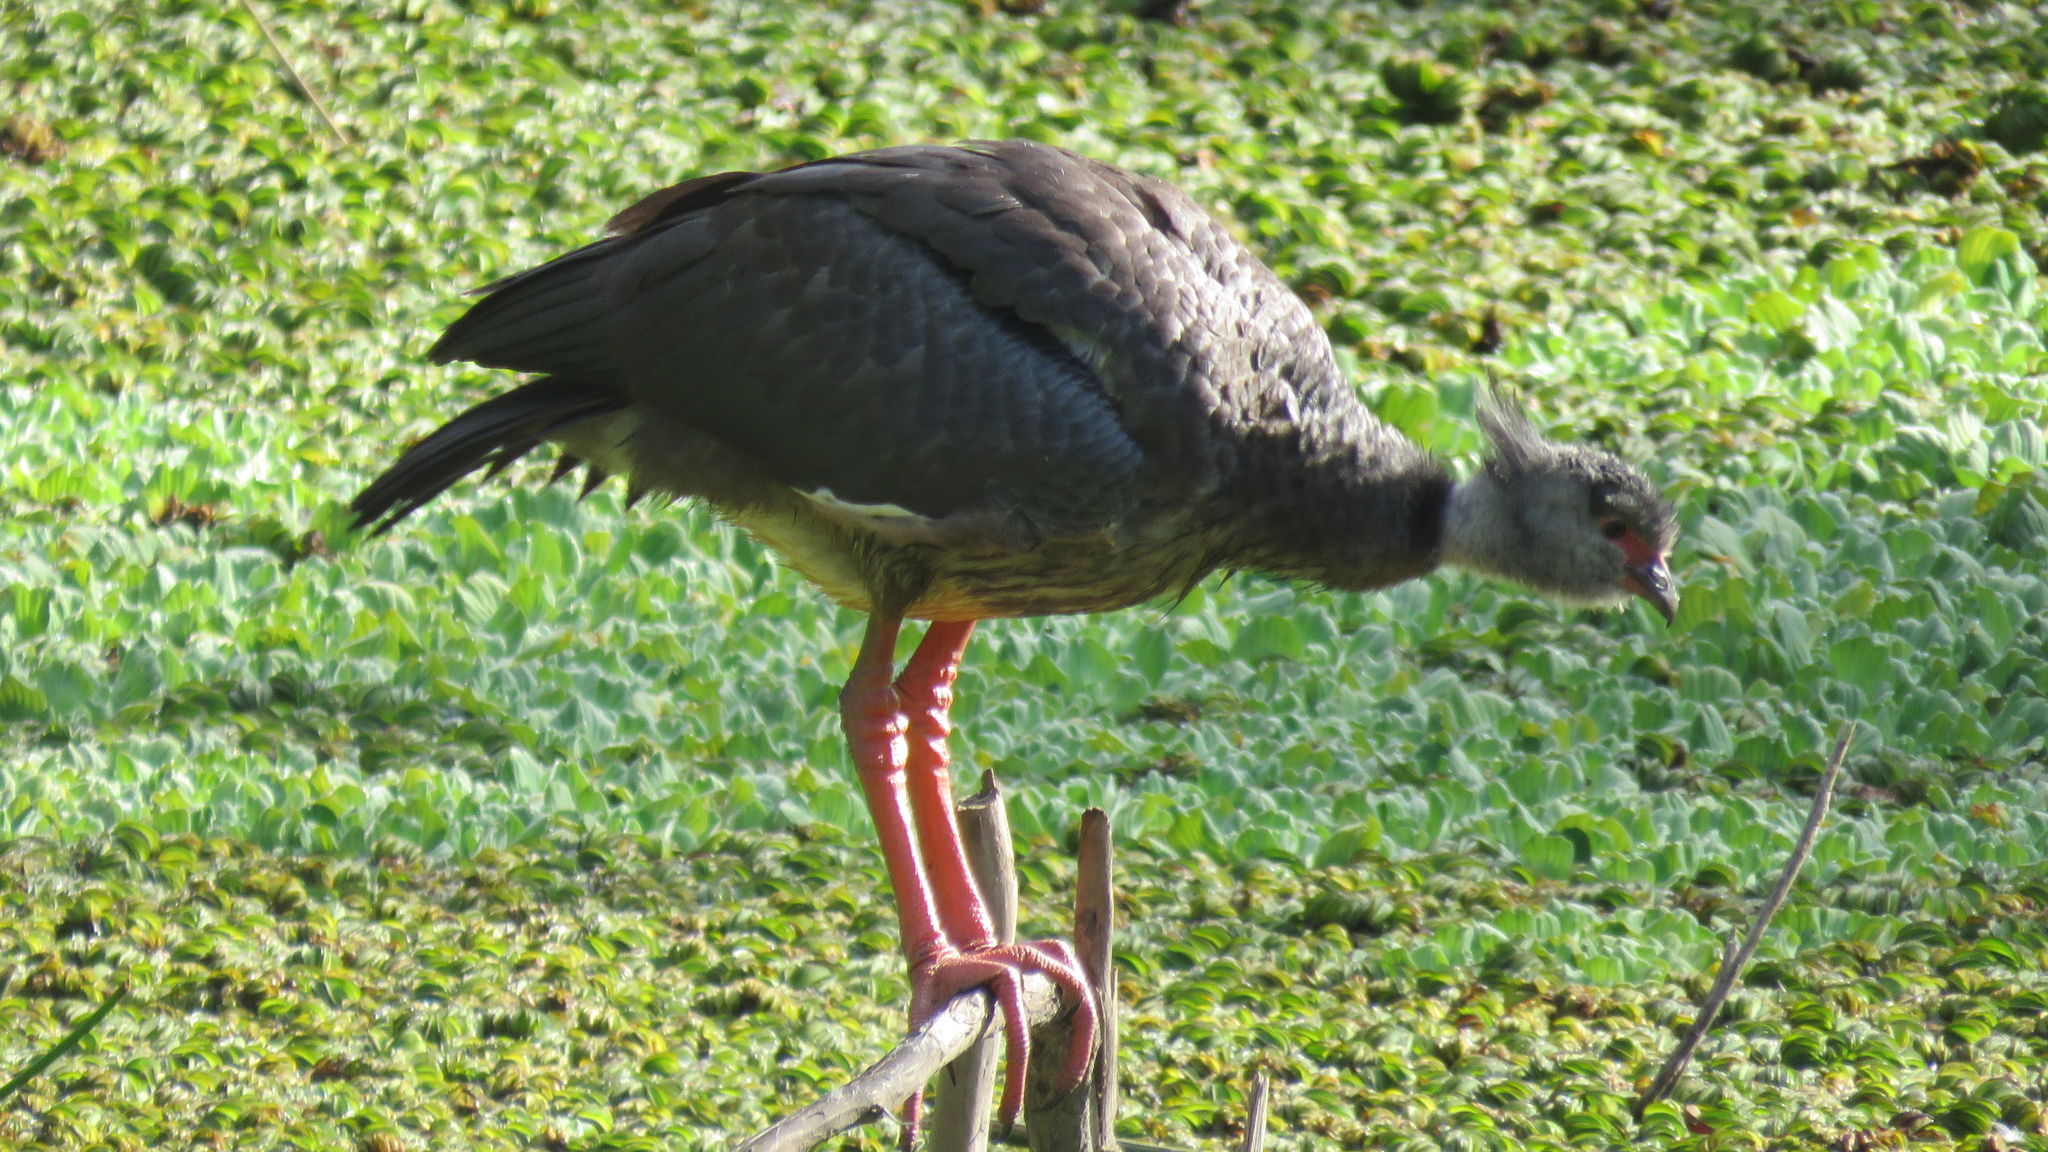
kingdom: Animalia
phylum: Chordata
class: Aves
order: Anseriformes
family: Anhimidae
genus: Chauna
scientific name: Chauna torquata
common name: Southern screamer
